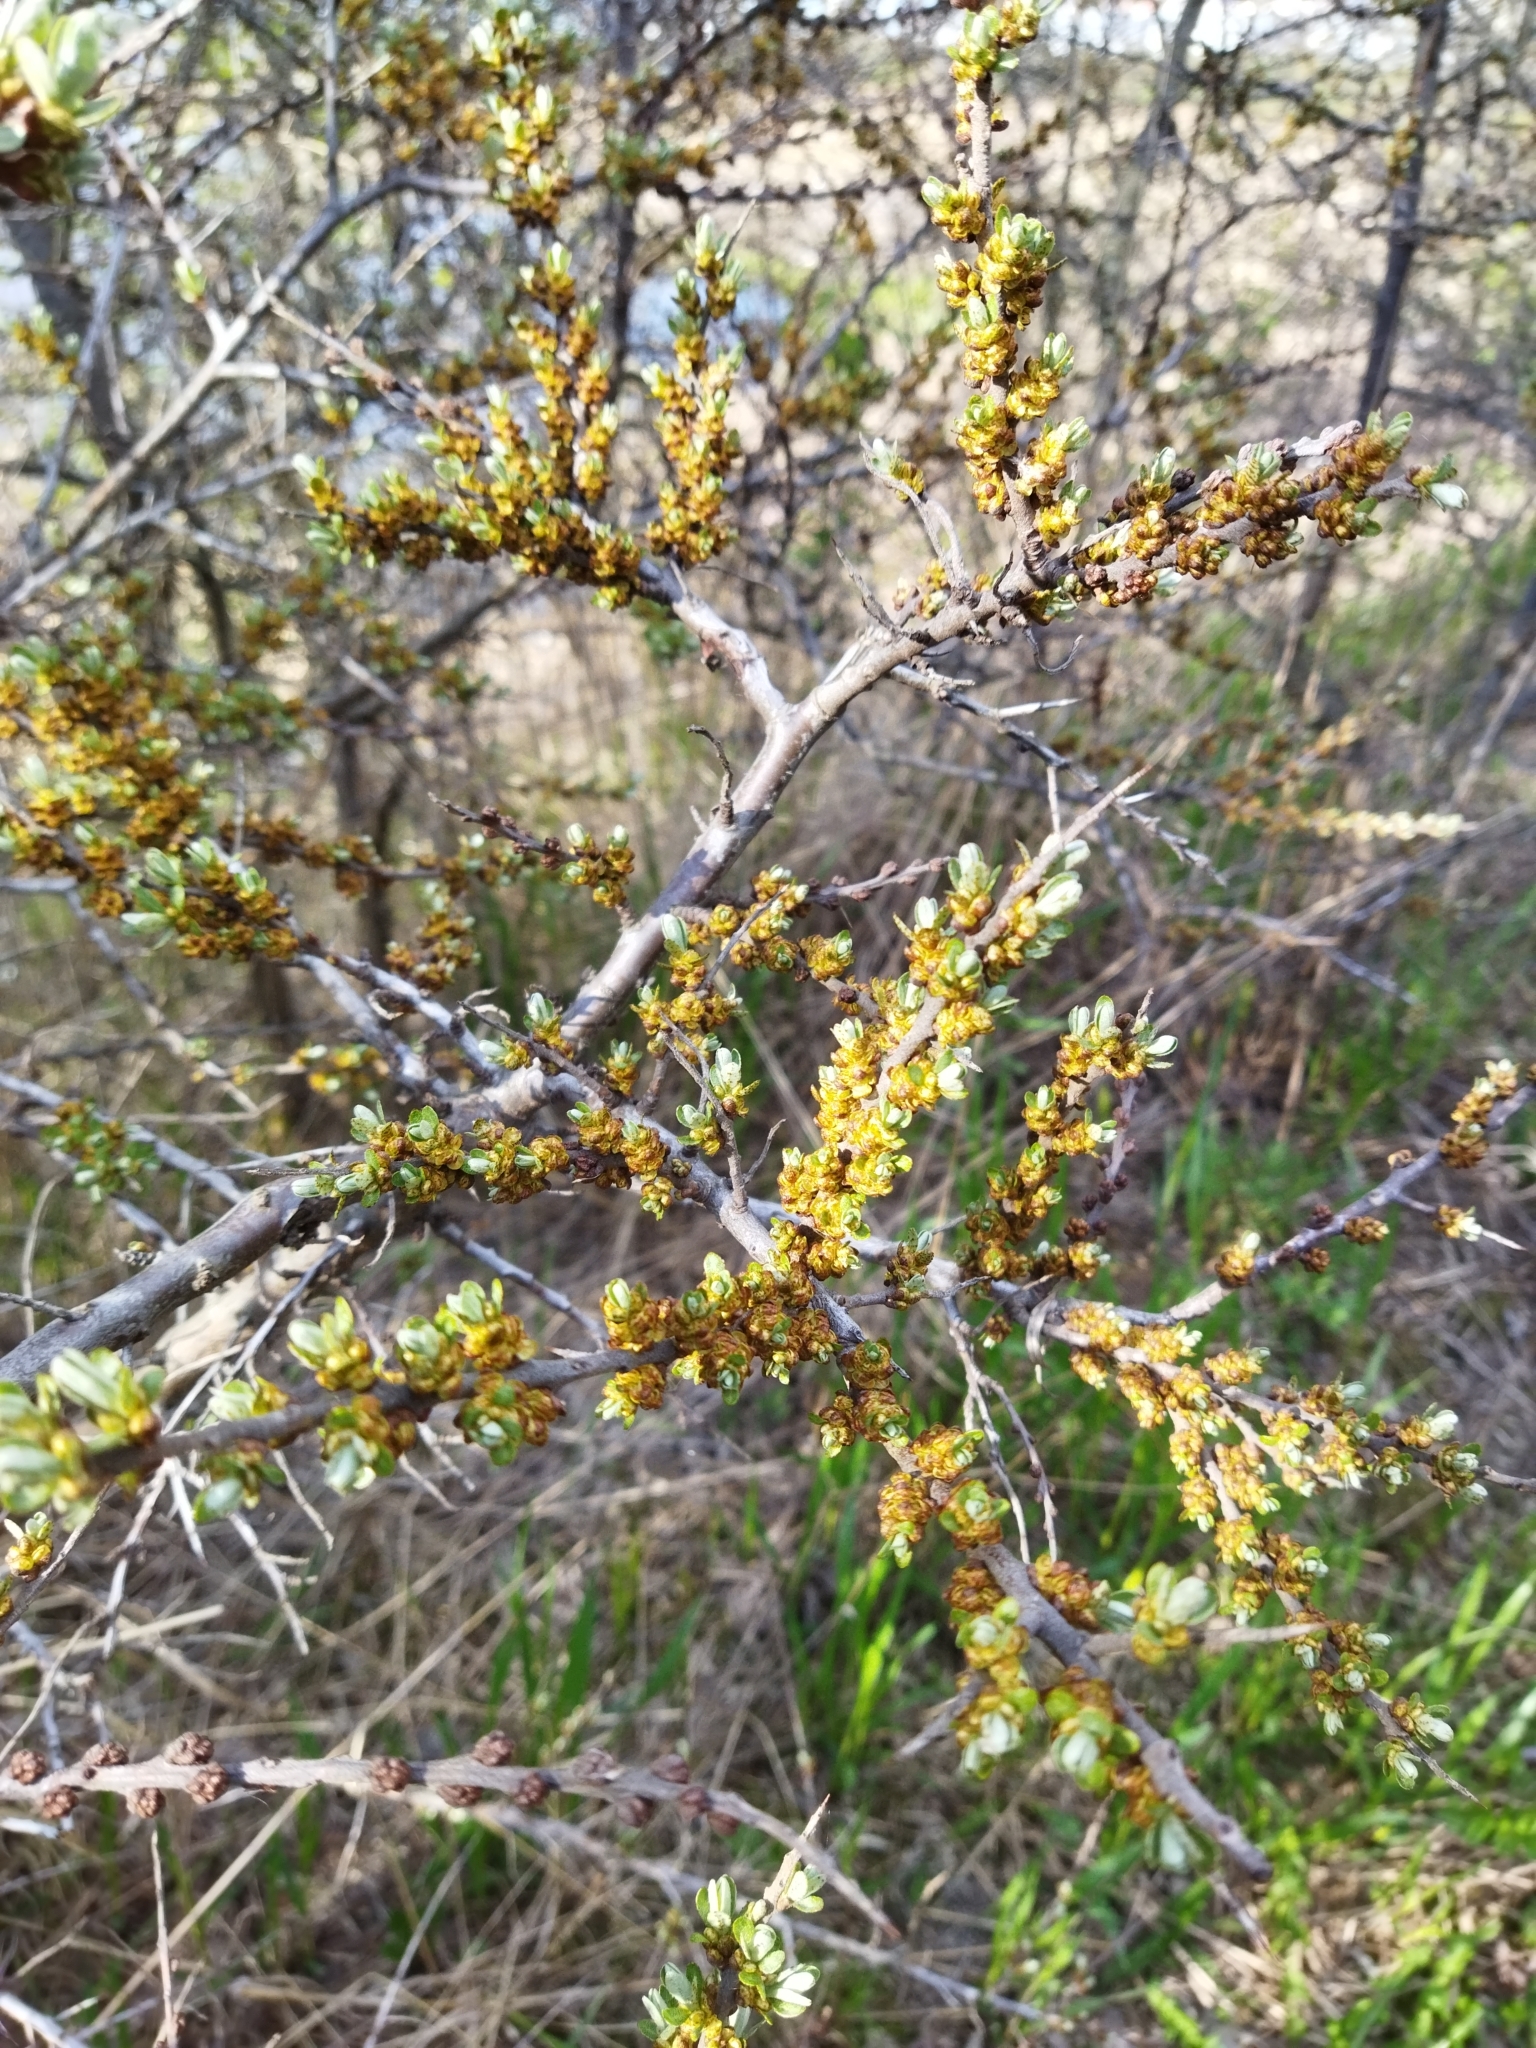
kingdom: Plantae
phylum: Tracheophyta
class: Magnoliopsida
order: Rosales
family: Elaeagnaceae
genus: Hippophae
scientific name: Hippophae rhamnoides
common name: Sea-buckthorn
